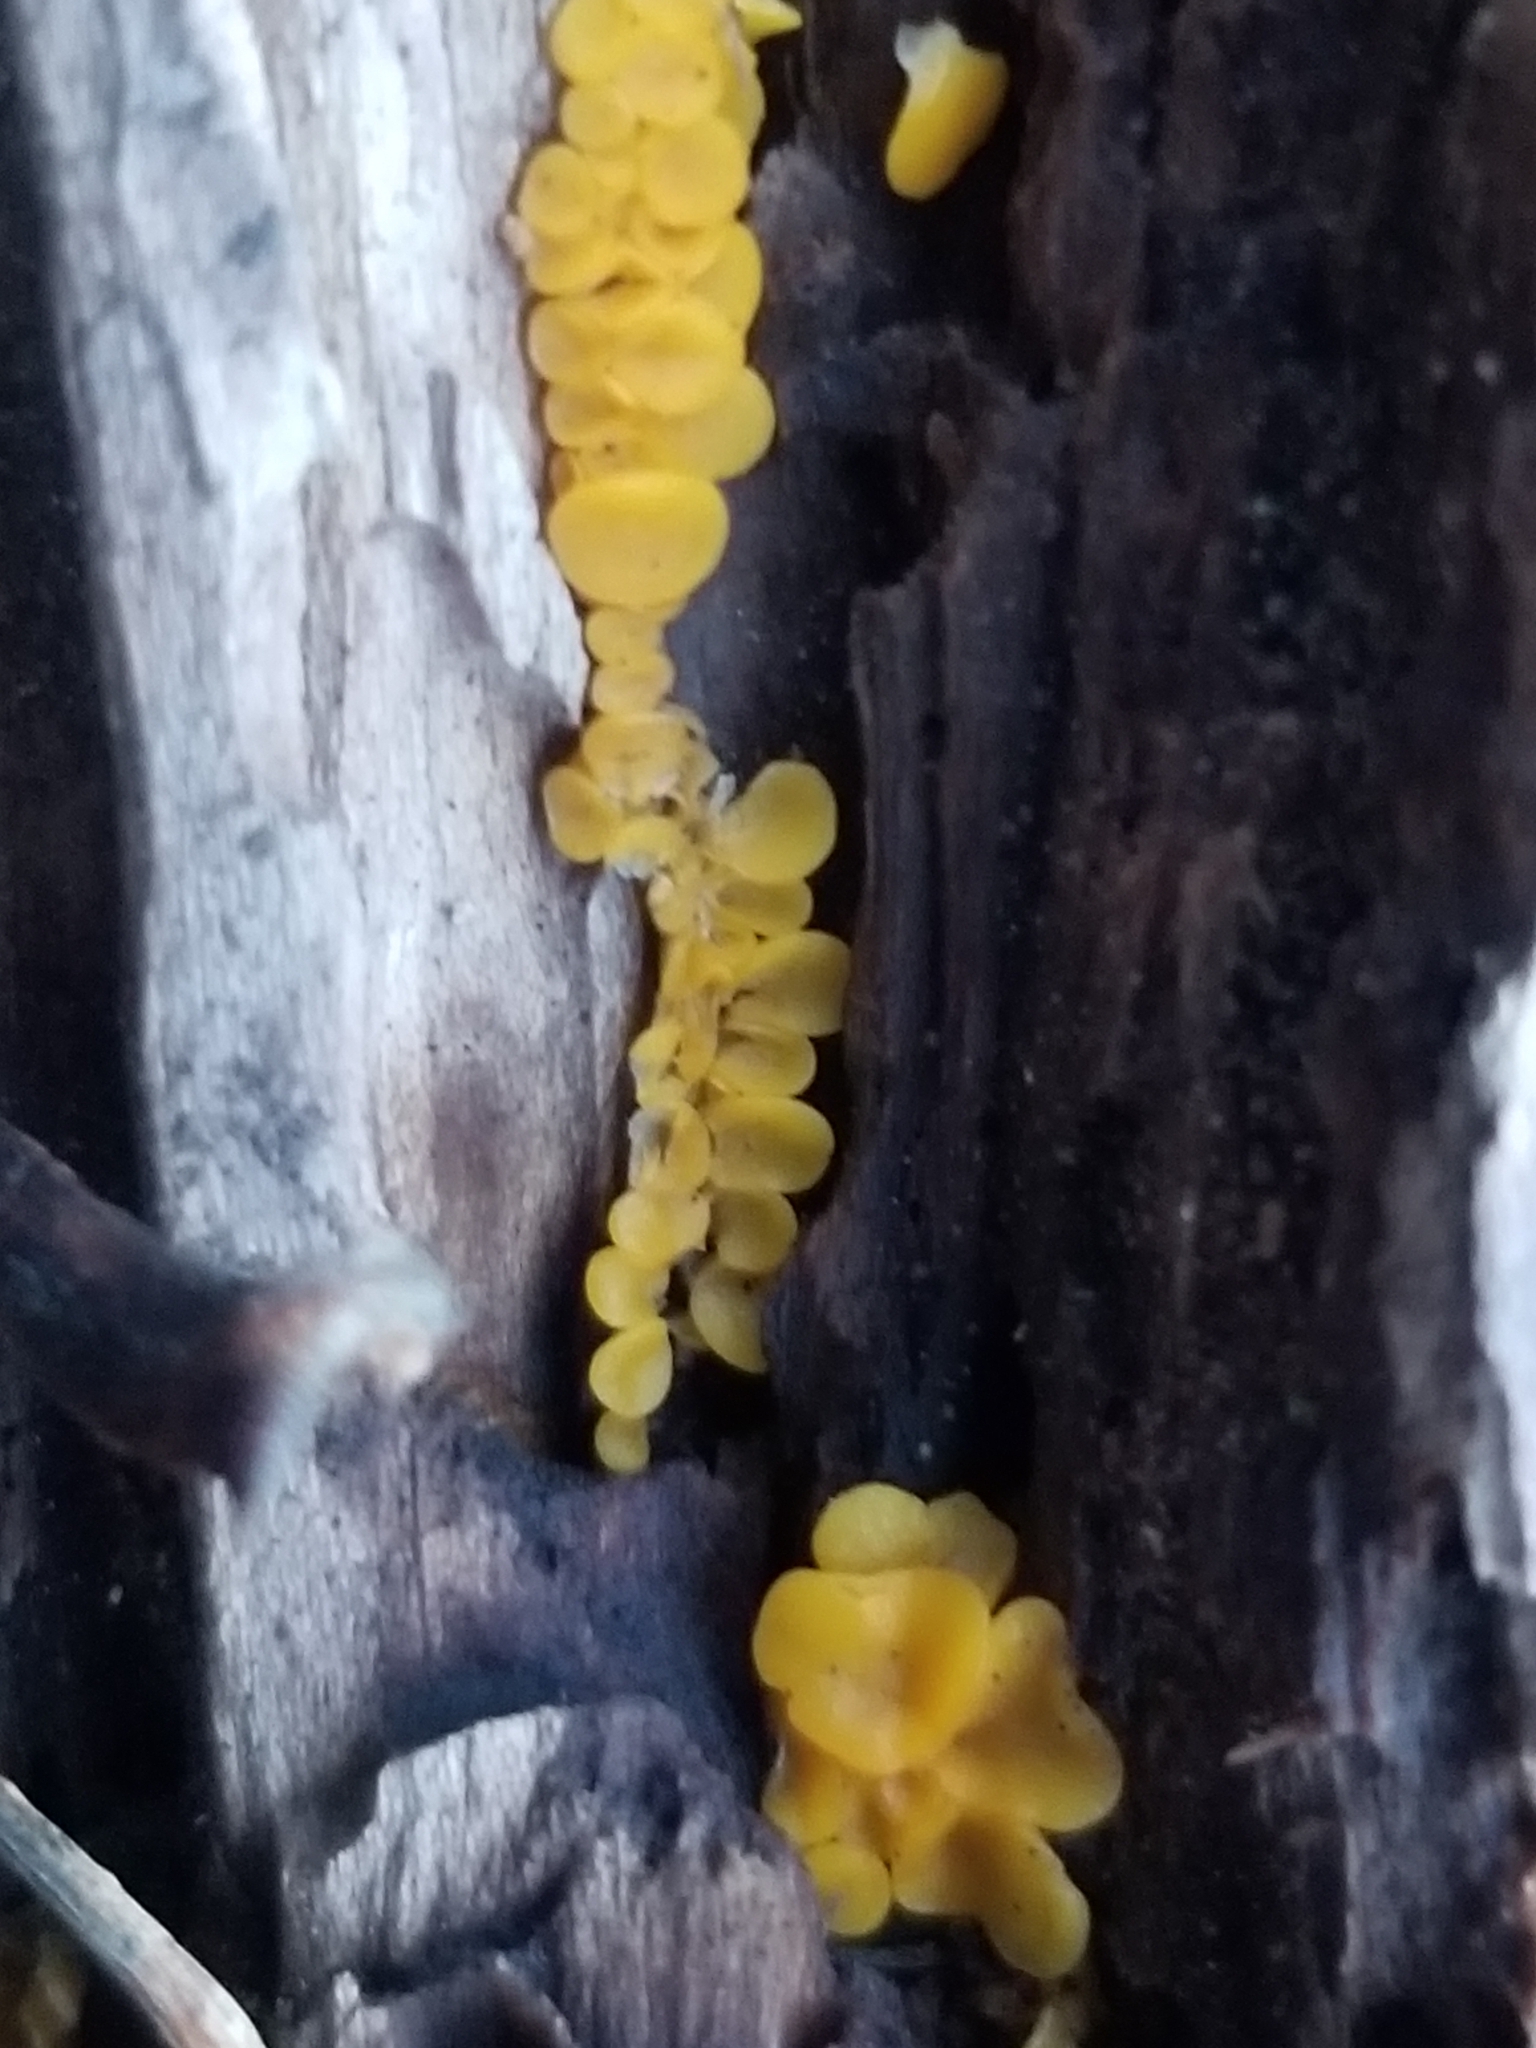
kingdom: Fungi
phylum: Ascomycota
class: Leotiomycetes
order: Helotiales
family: Pezizellaceae
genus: Calycina
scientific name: Calycina citrina
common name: Yellow fairy cups
